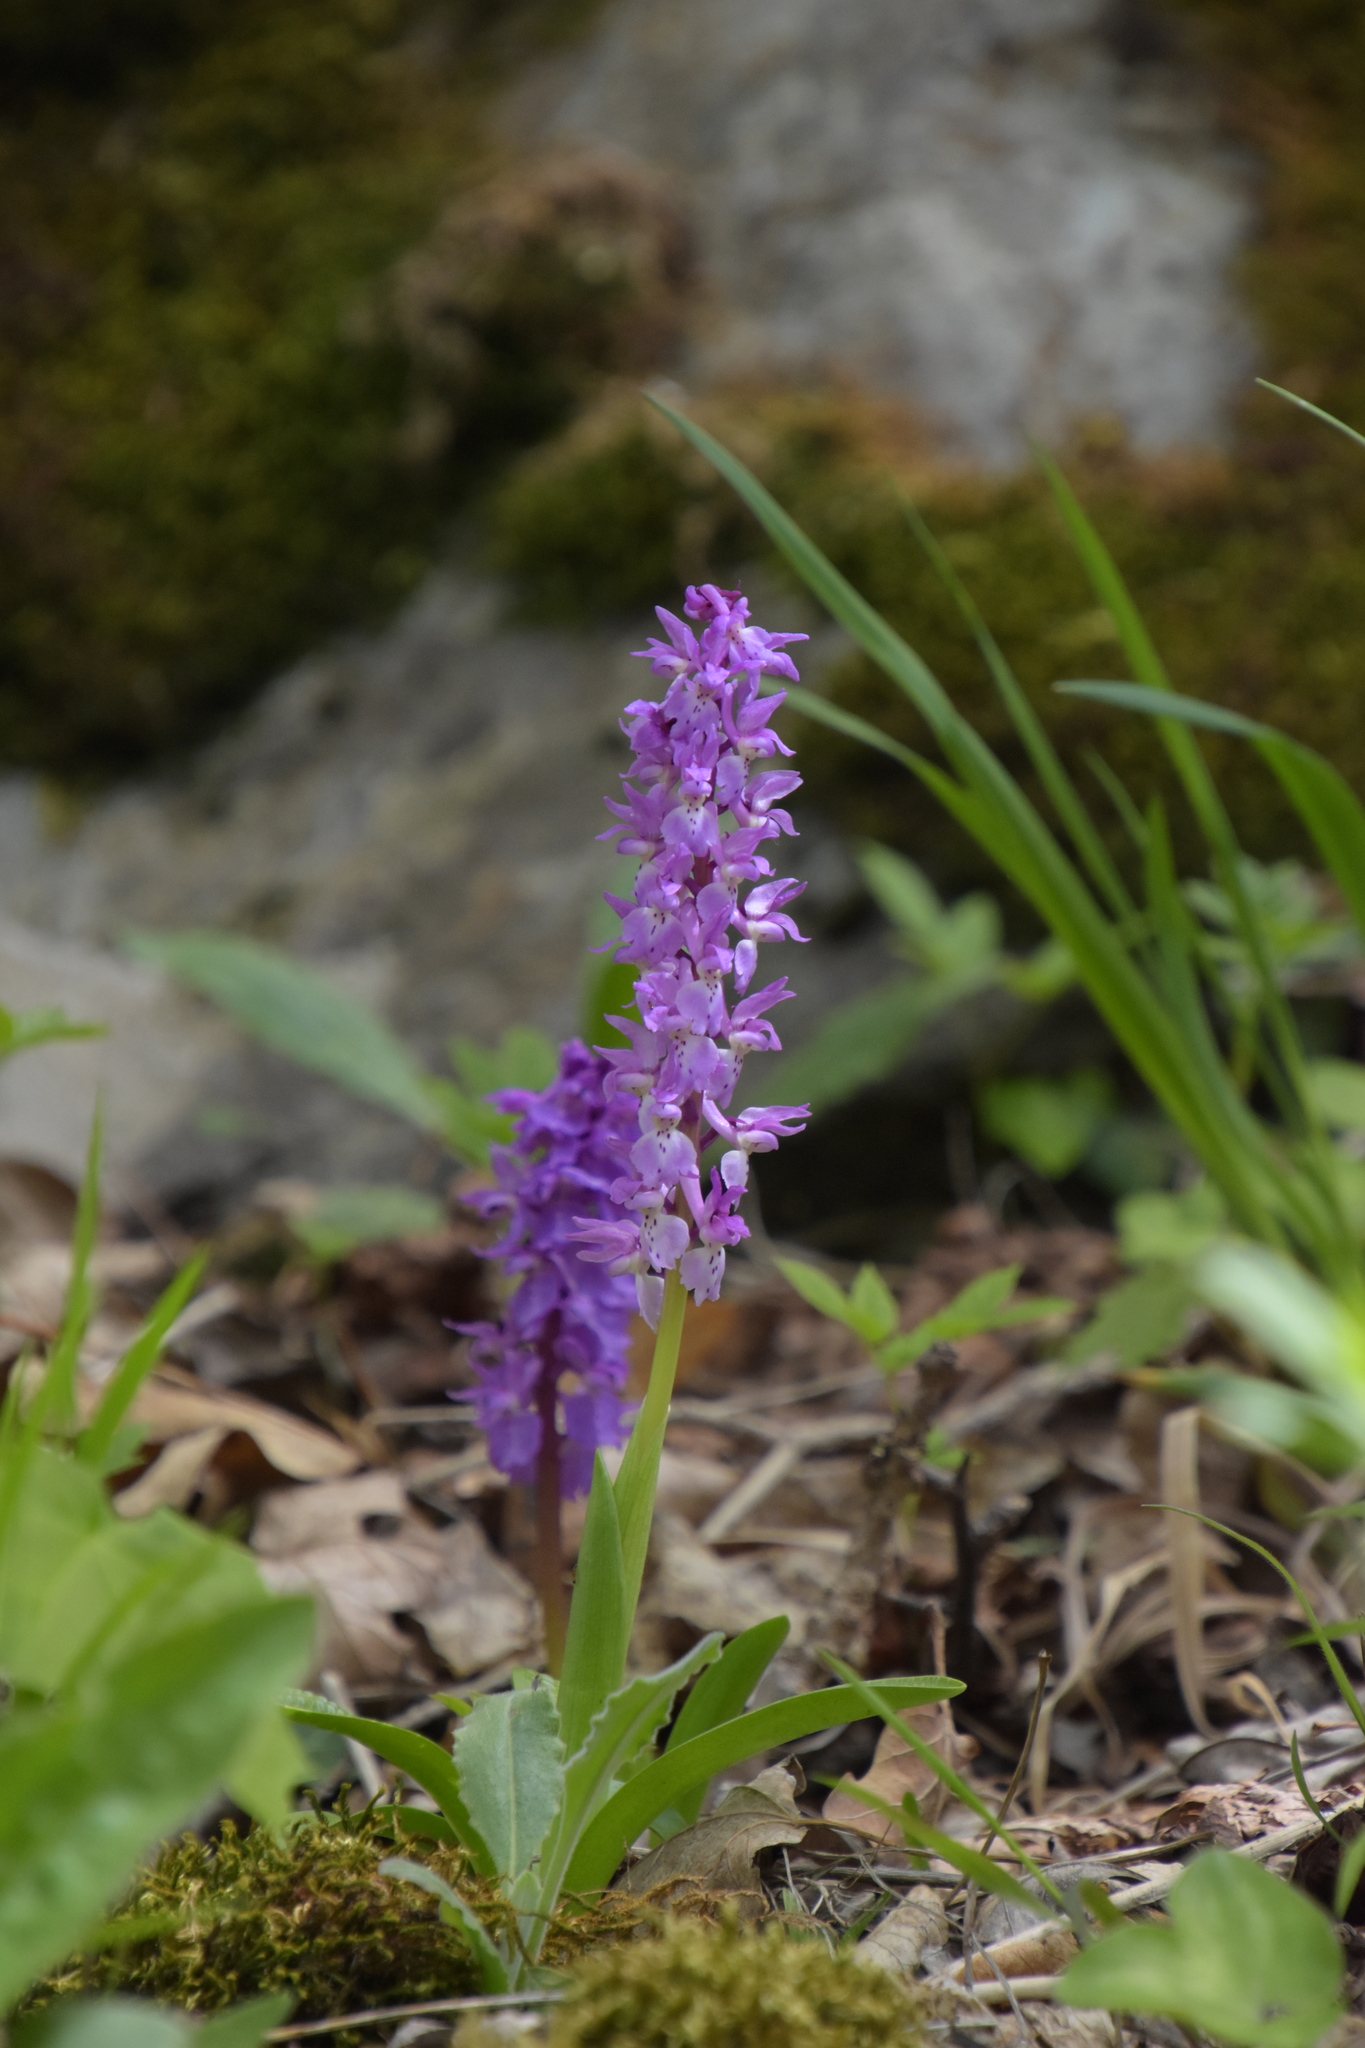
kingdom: Plantae
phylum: Tracheophyta
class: Liliopsida
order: Asparagales
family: Orchidaceae
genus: Orchis
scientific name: Orchis mascula
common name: Early-purple orchid
